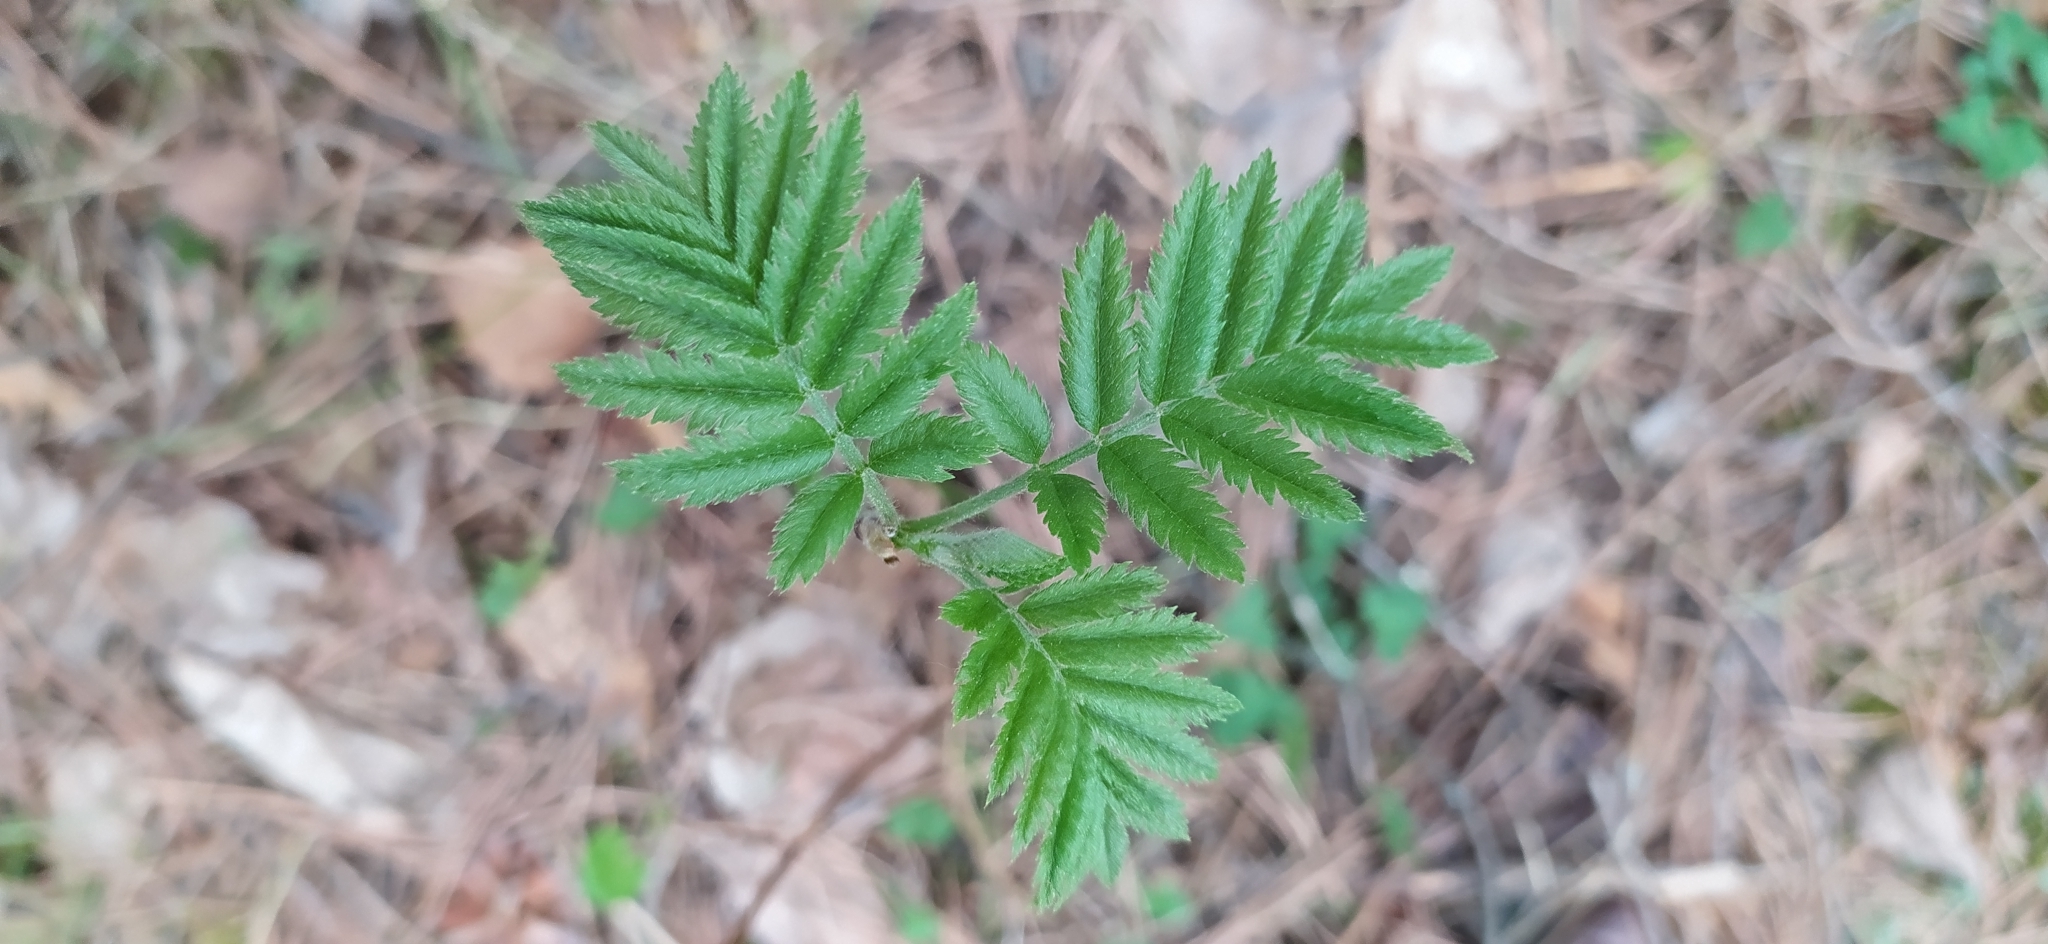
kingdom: Plantae
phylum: Tracheophyta
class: Magnoliopsida
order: Rosales
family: Rosaceae
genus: Sorbus
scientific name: Sorbus aucuparia
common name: Rowan
